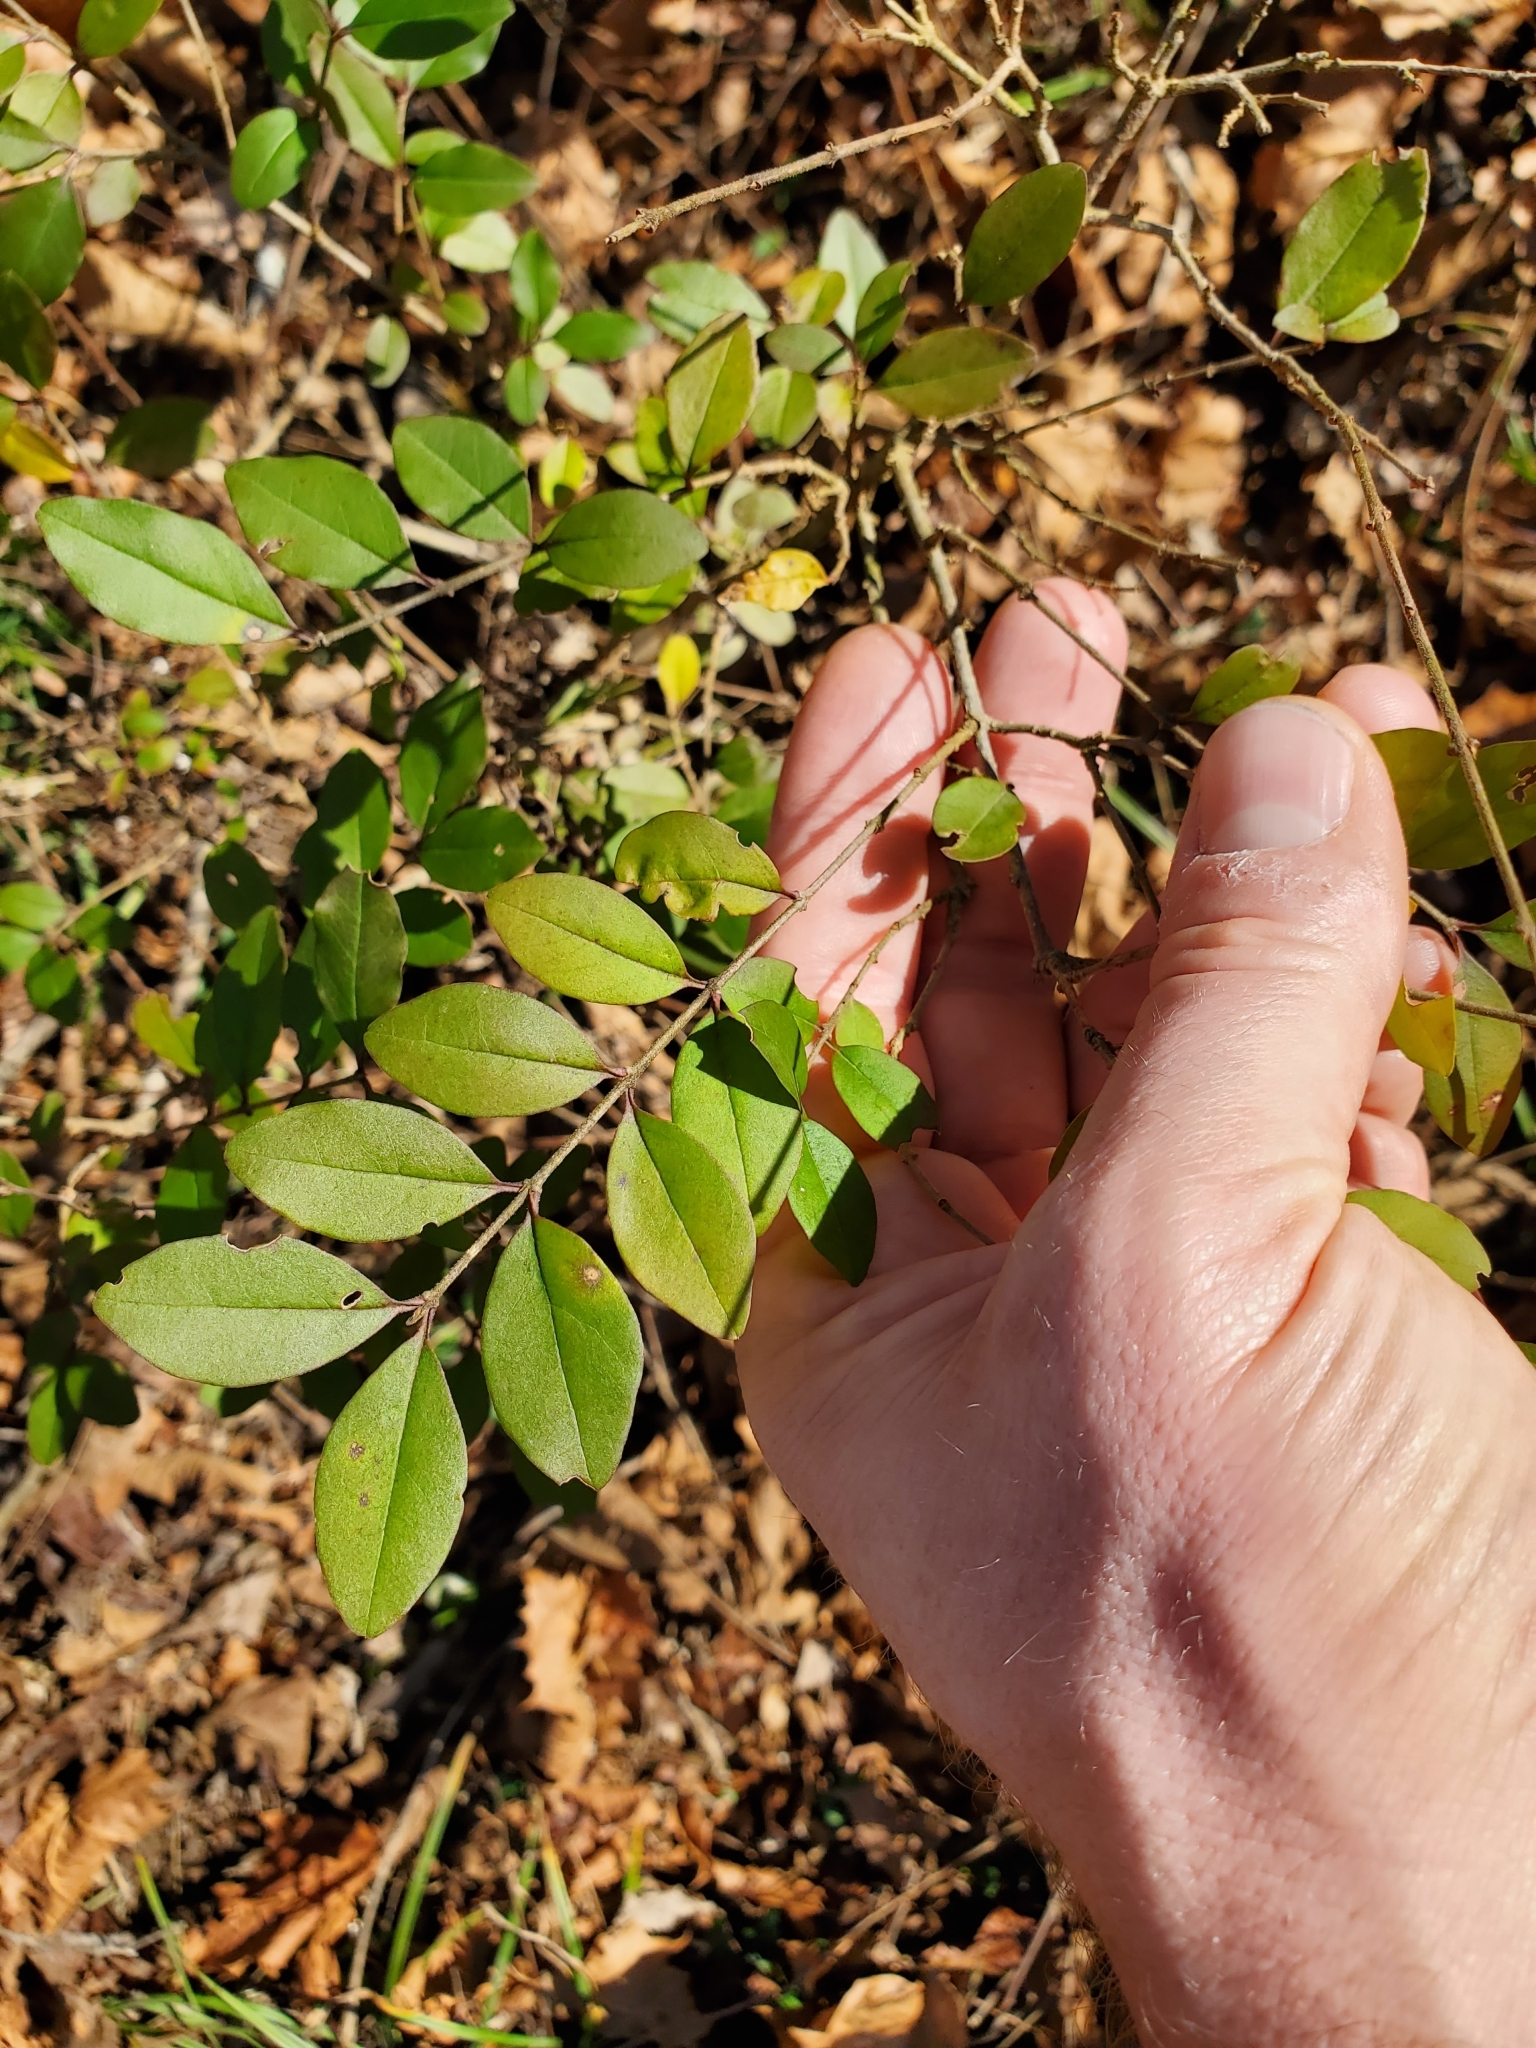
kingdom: Plantae
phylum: Tracheophyta
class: Magnoliopsida
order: Lamiales
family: Oleaceae
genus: Ligustrum
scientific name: Ligustrum sinense
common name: Chinese privet
